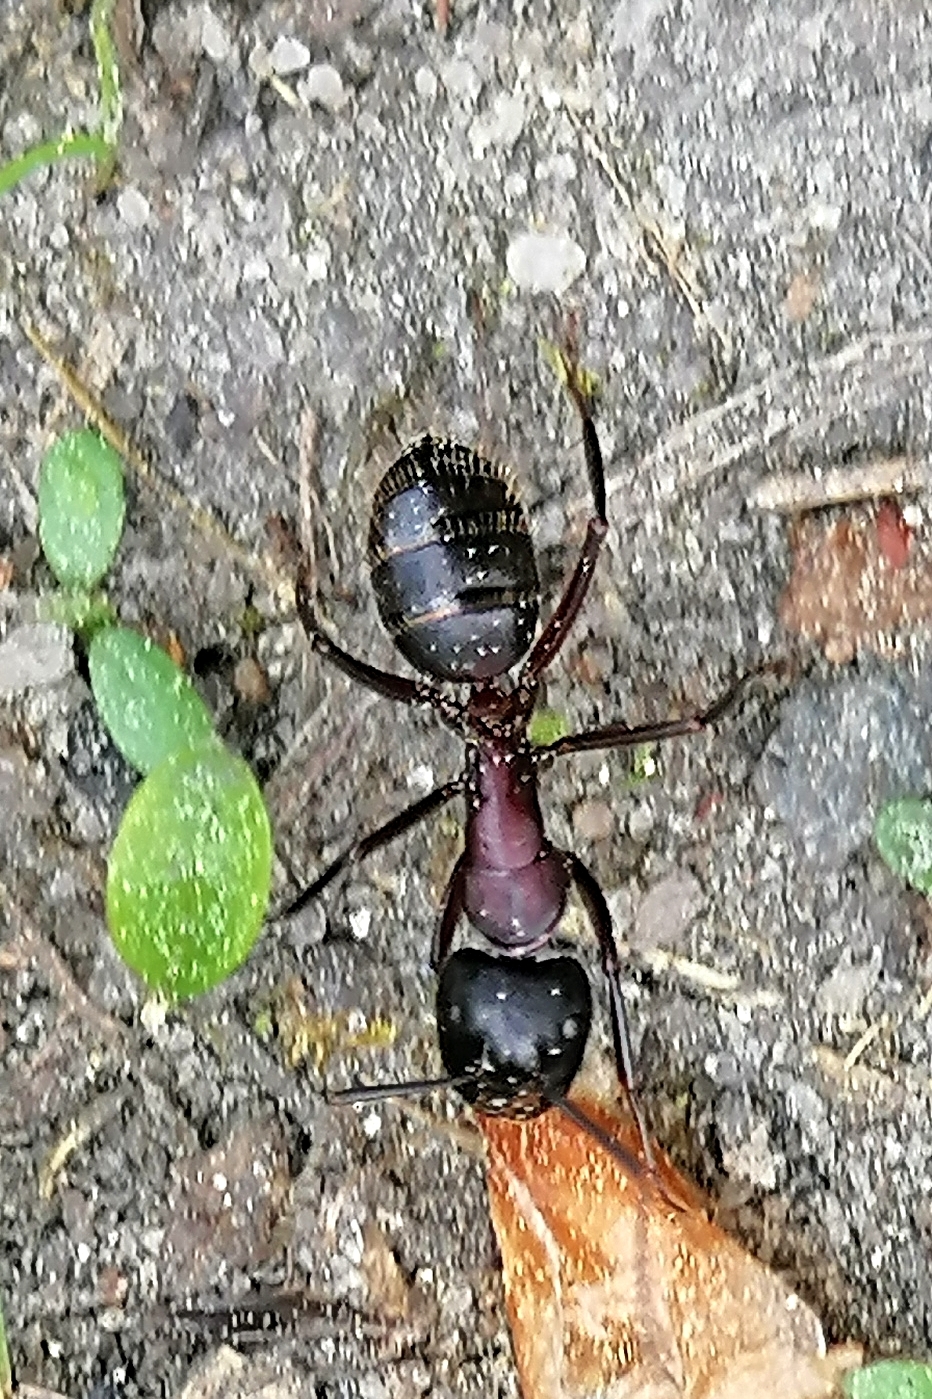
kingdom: Animalia
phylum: Arthropoda
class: Insecta
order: Hymenoptera
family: Formicidae
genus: Camponotus
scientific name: Camponotus ligniperdus
